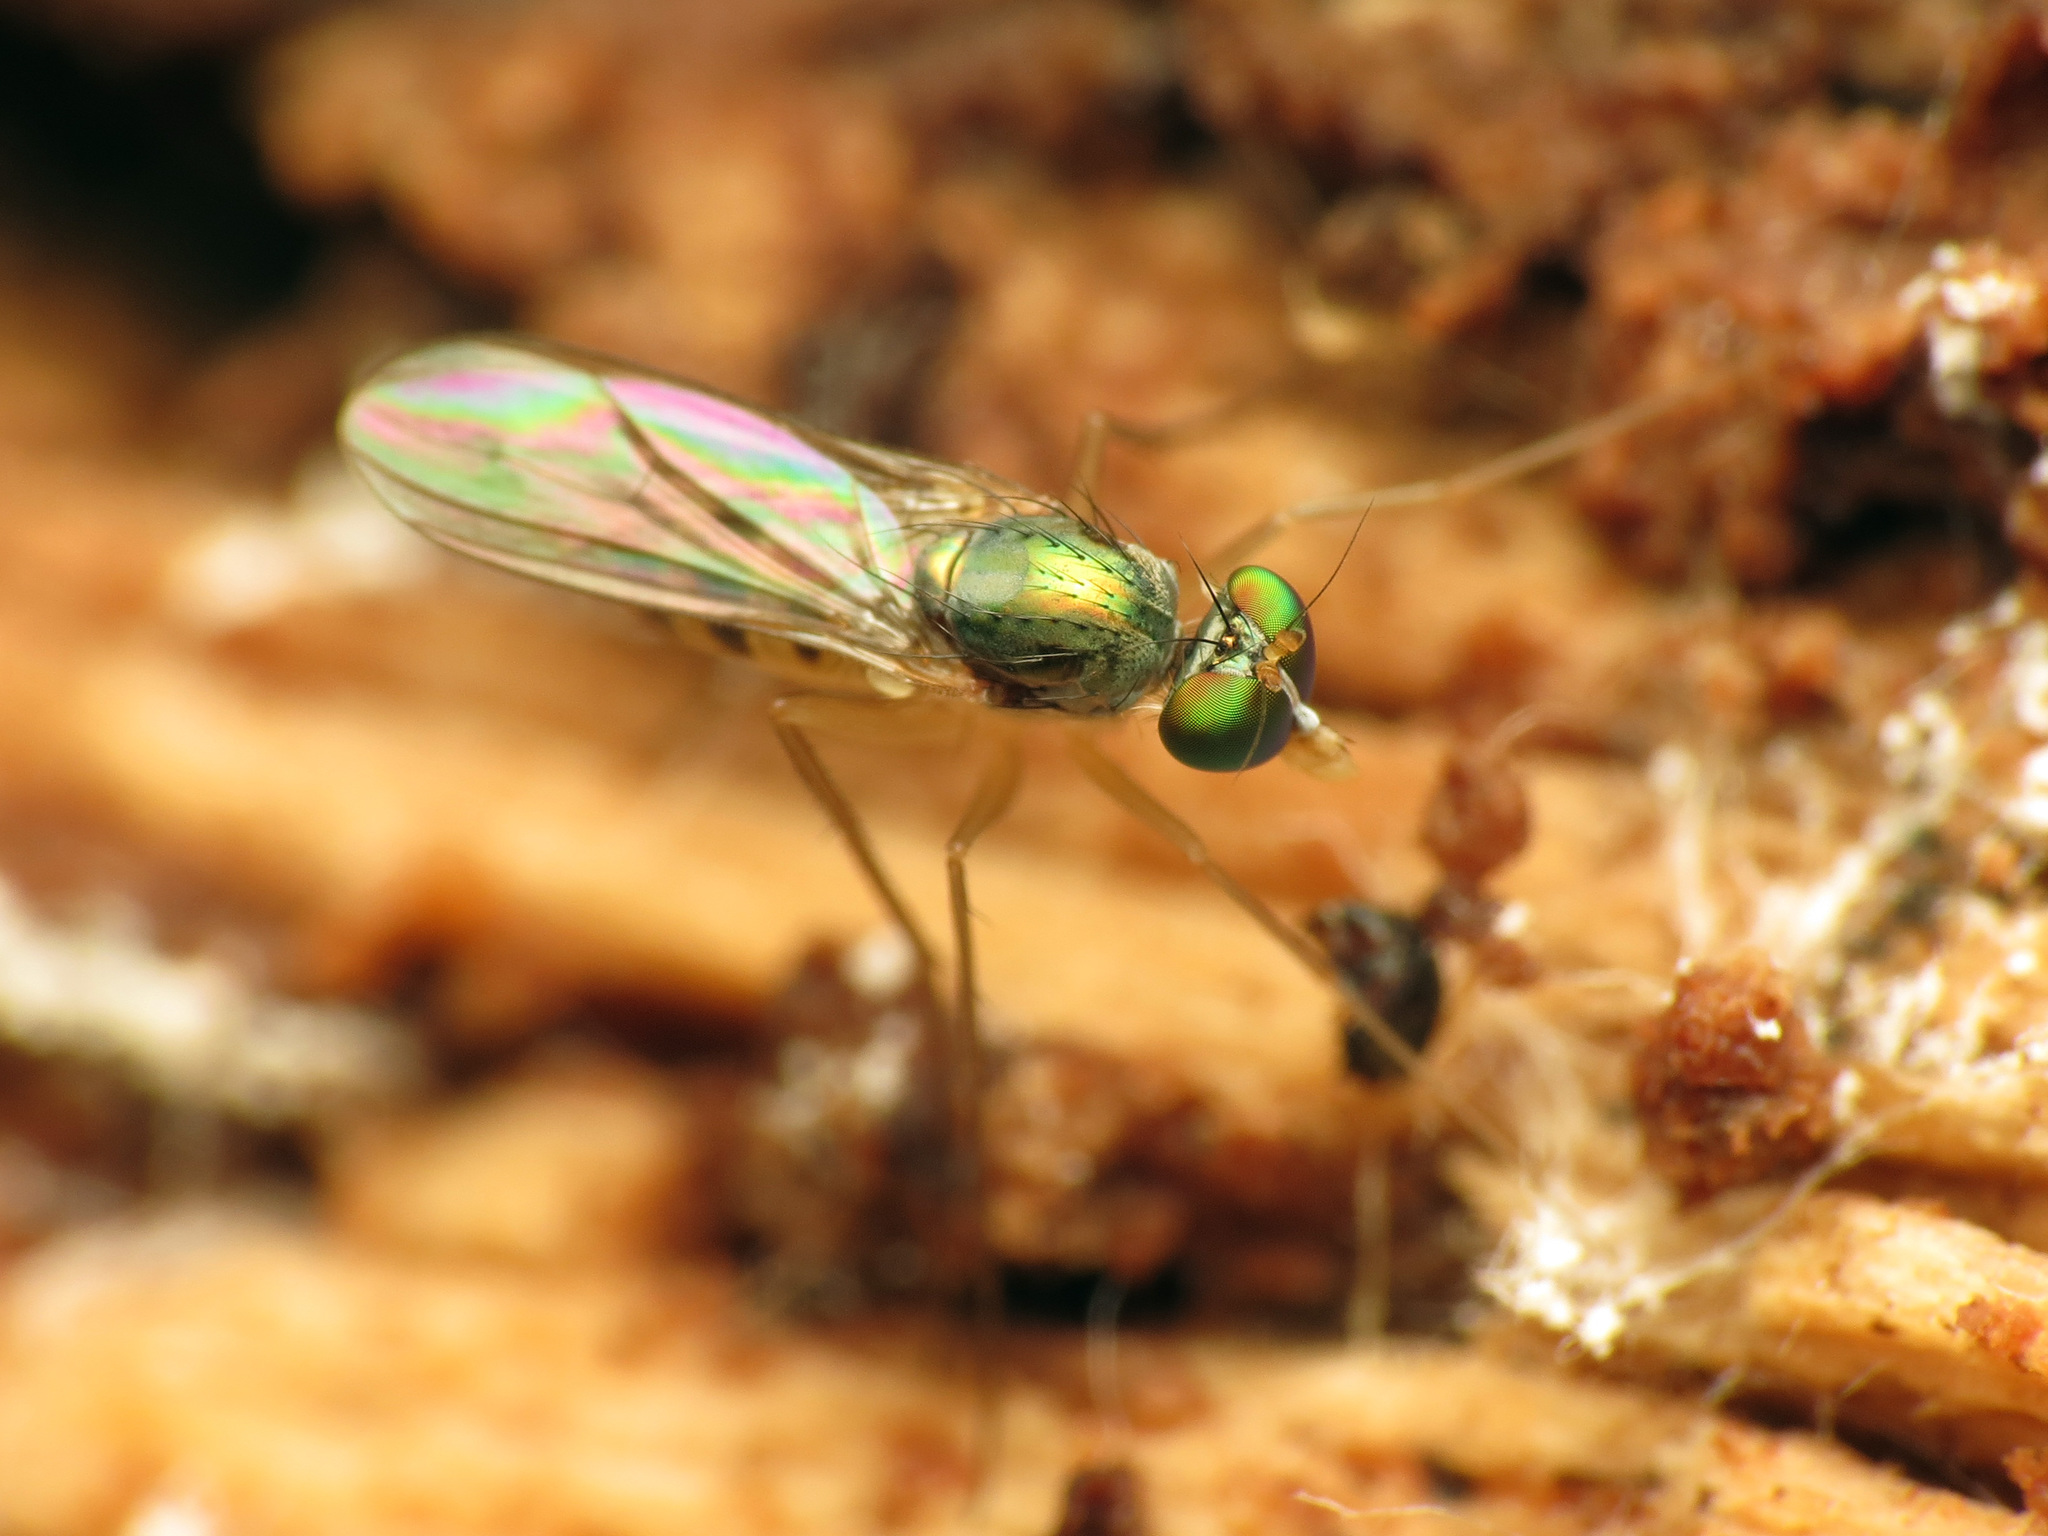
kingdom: Animalia
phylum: Arthropoda
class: Insecta
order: Diptera
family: Dolichopodidae
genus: Neurigona
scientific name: Neurigona deformis
